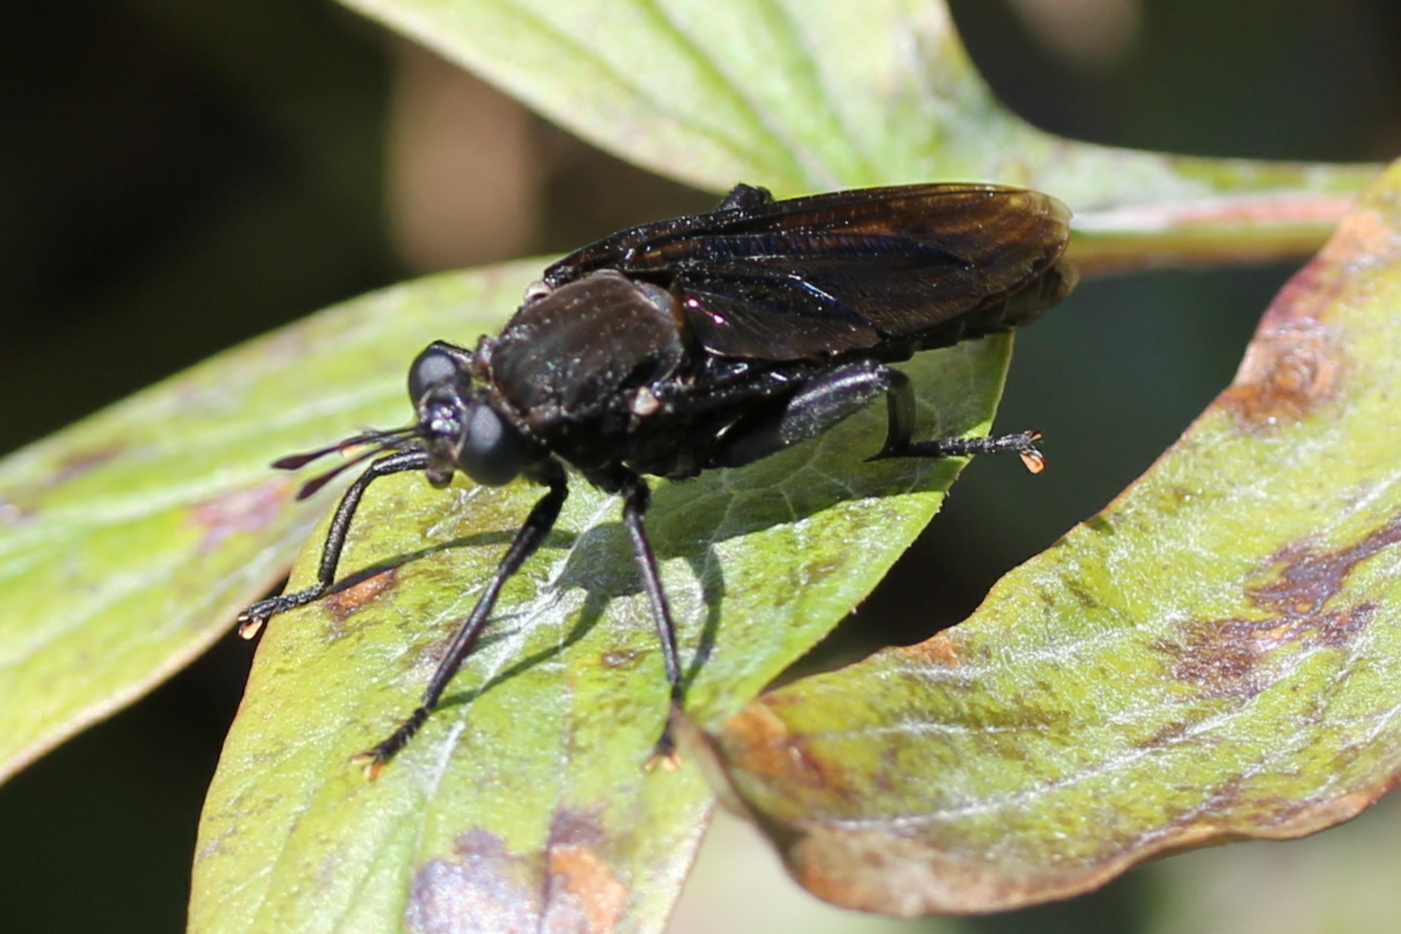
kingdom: Animalia
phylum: Arthropoda
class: Insecta
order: Diptera
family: Mydidae
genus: Mydas
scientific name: Mydas clavatus
